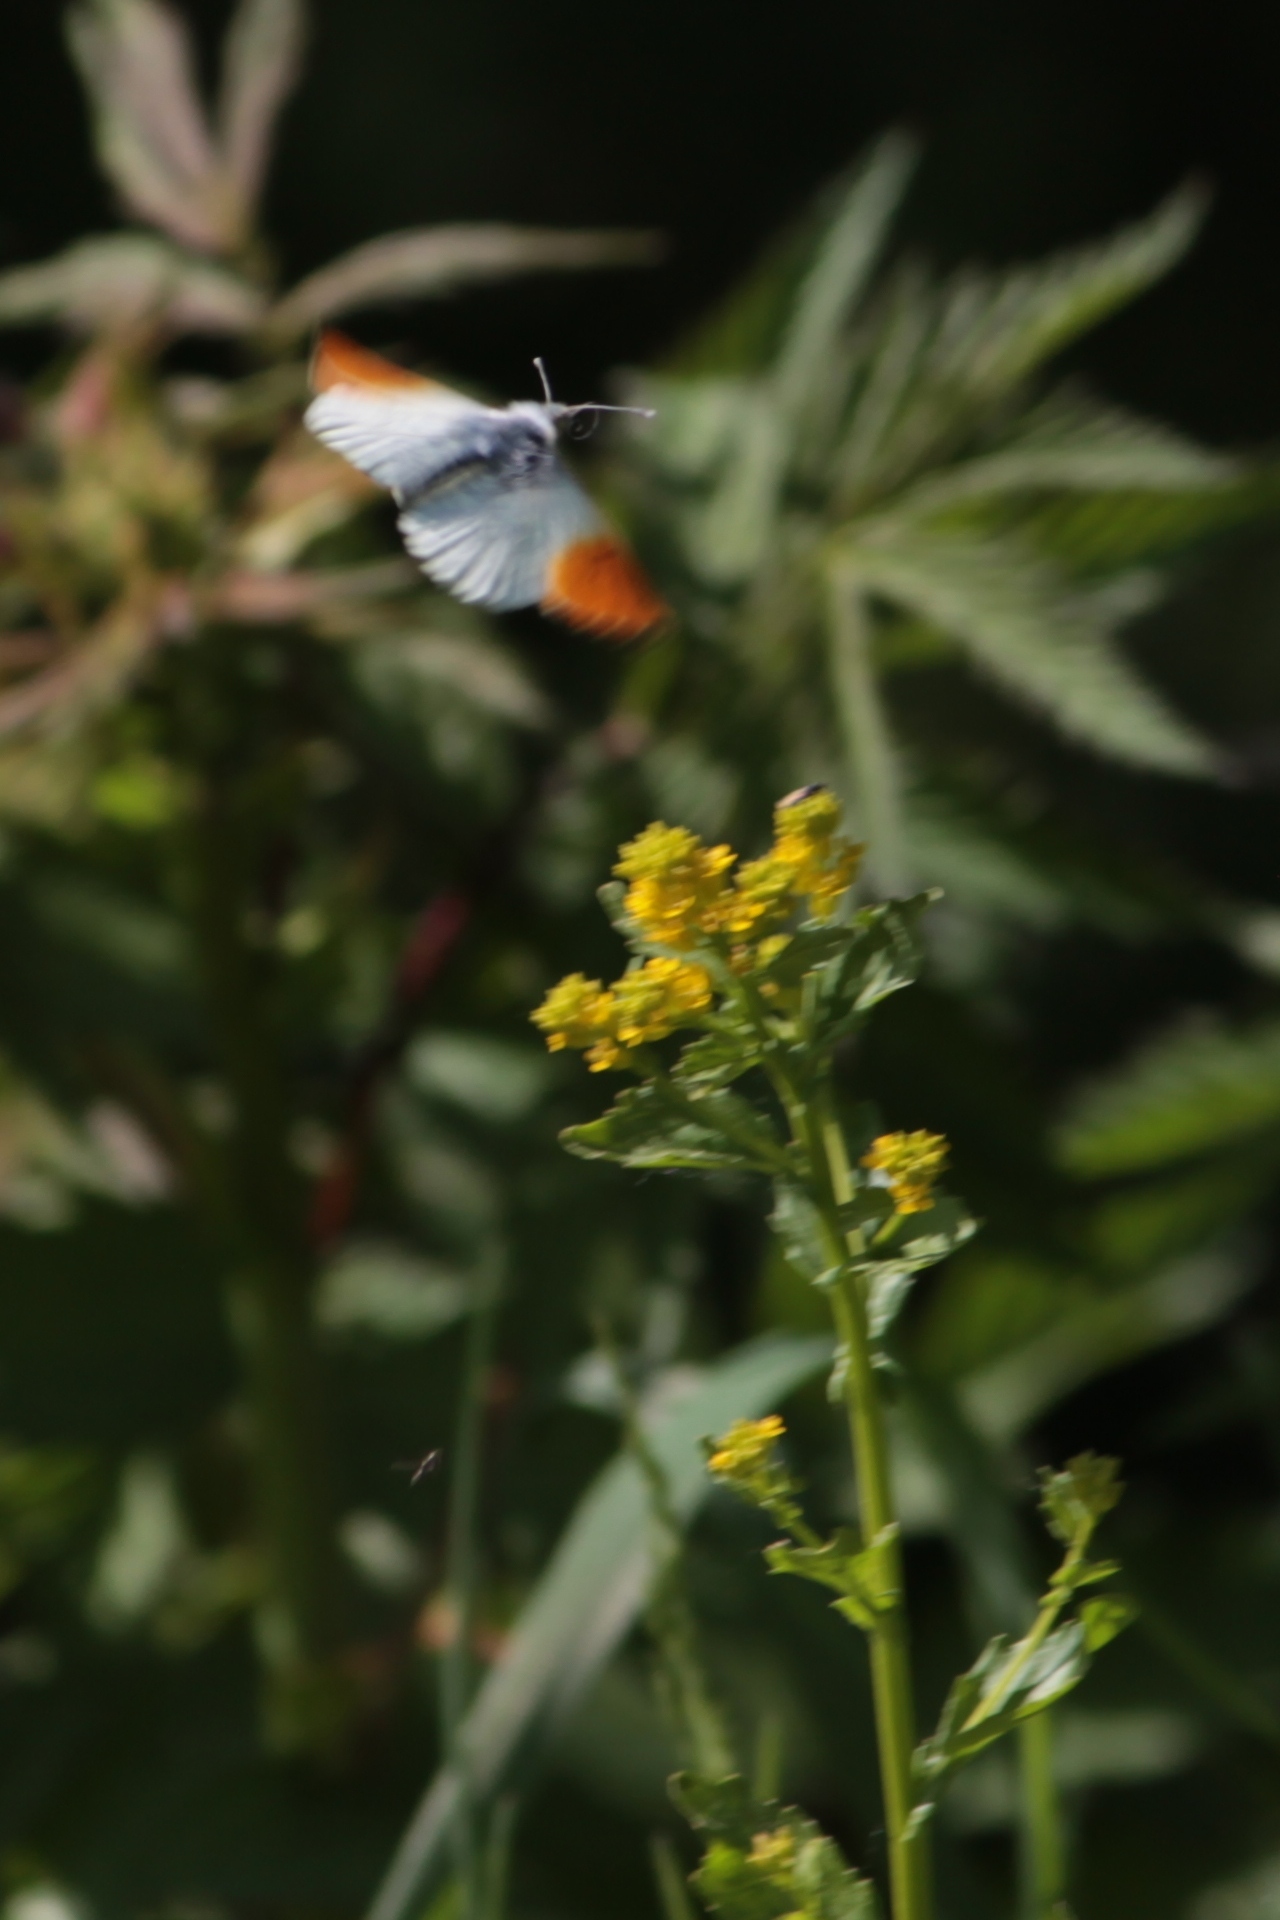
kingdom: Animalia
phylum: Arthropoda
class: Insecta
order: Lepidoptera
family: Pieridae
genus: Anthocharis
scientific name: Anthocharis cardamines
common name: Orange-tip
